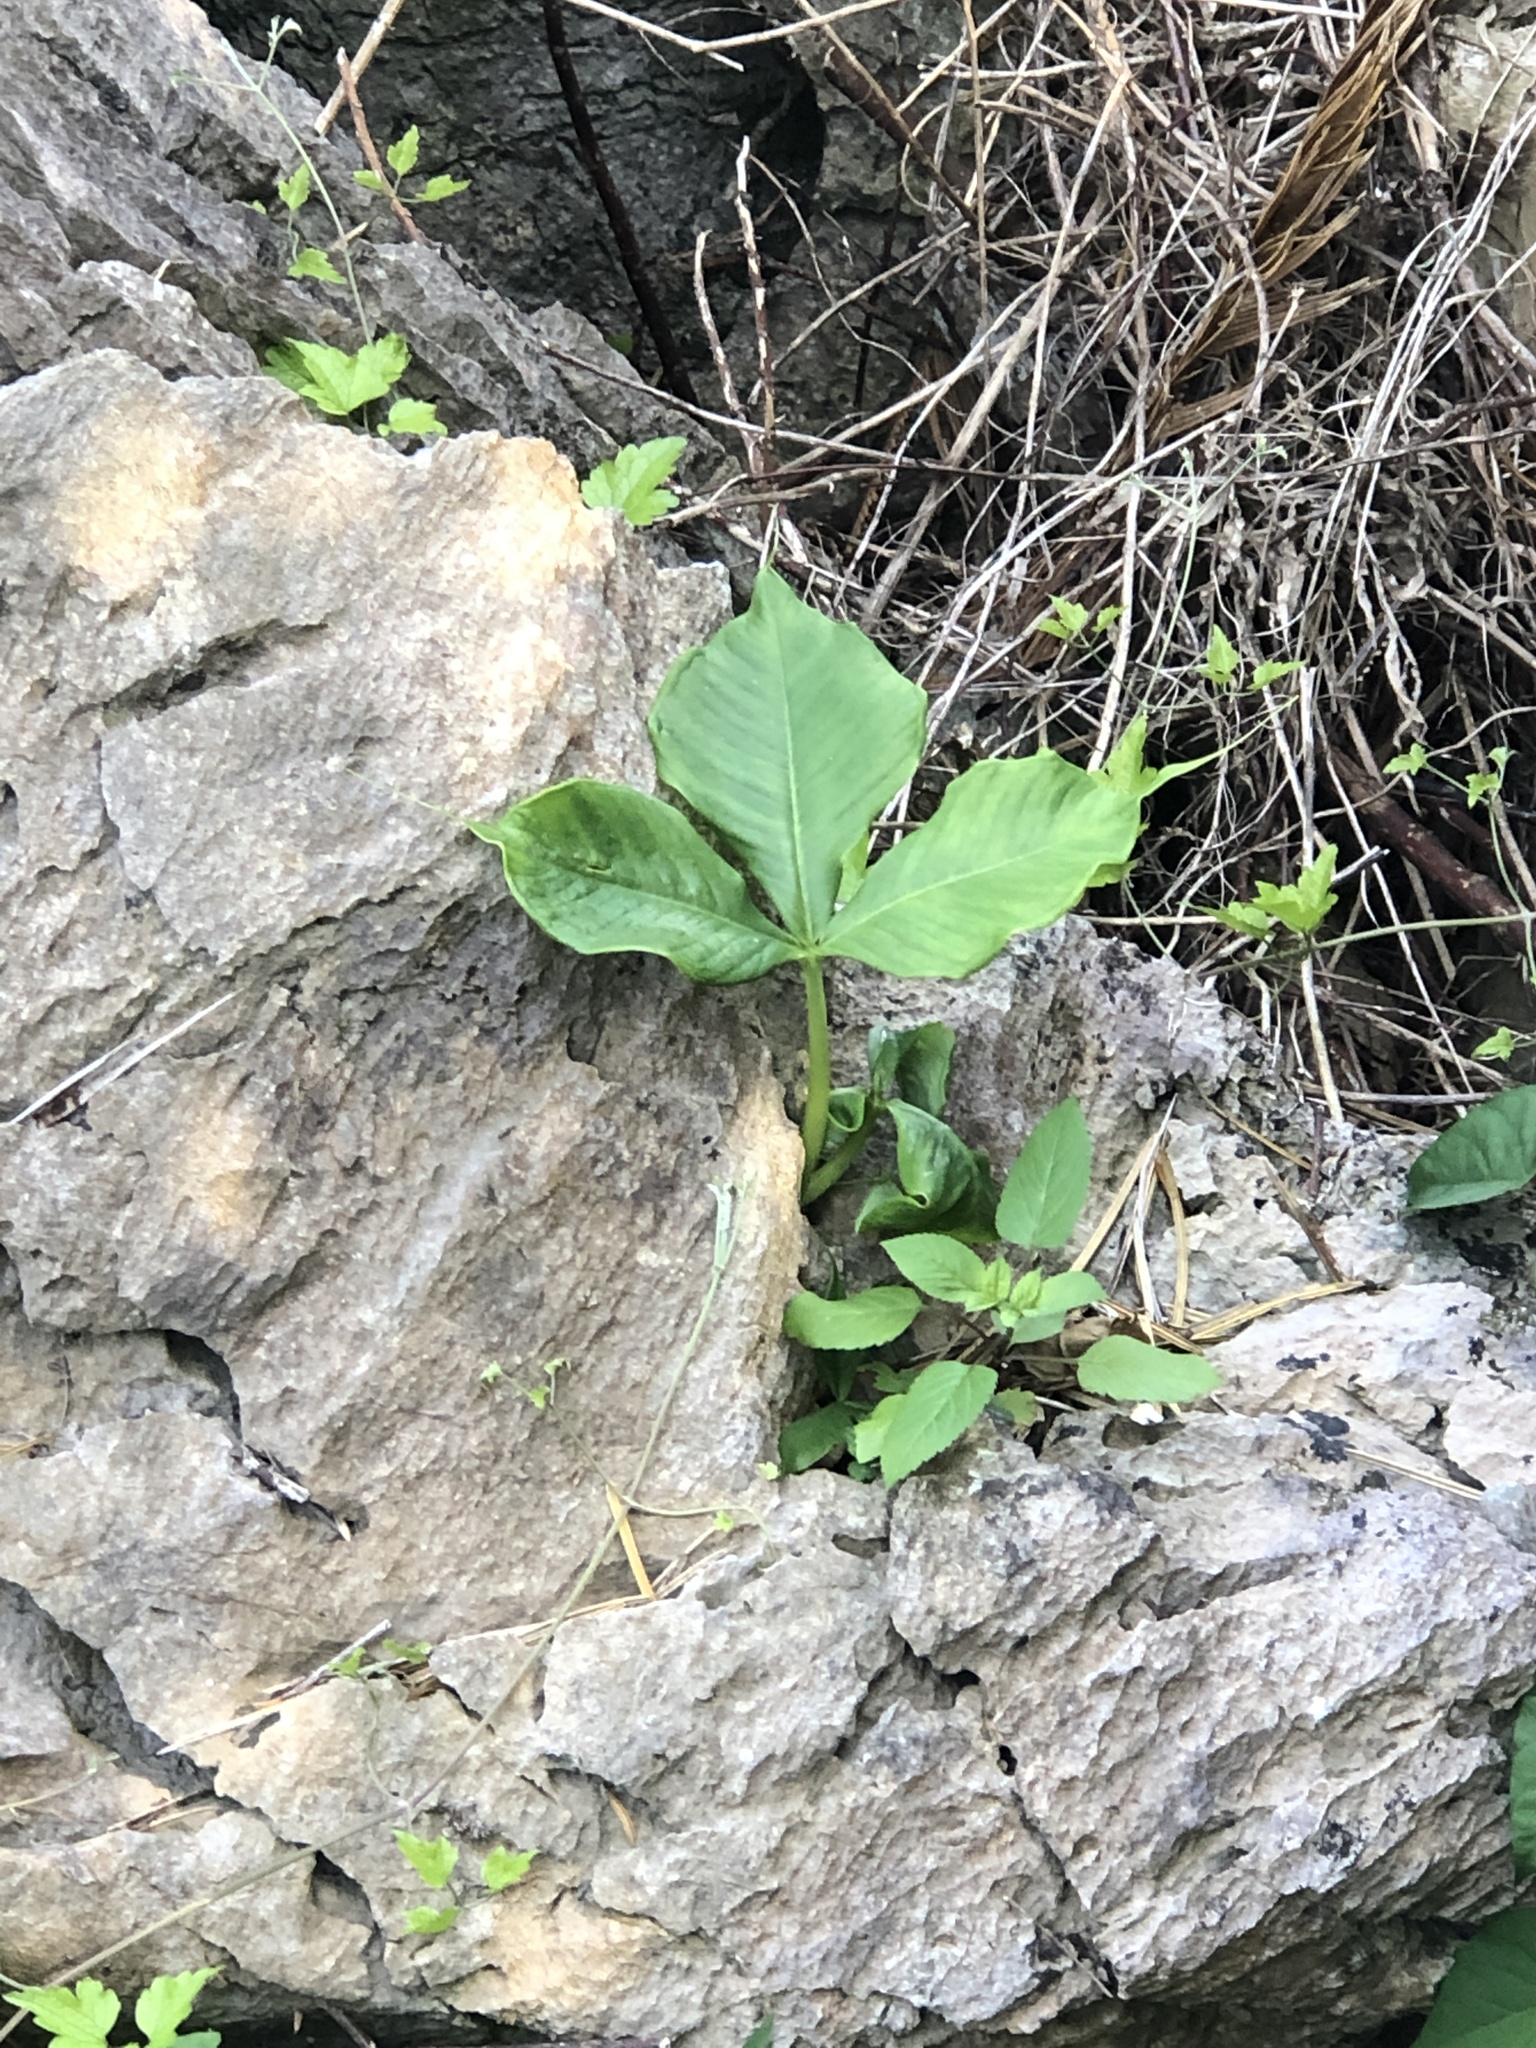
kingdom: Plantae
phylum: Tracheophyta
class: Liliopsida
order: Alismatales
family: Araceae
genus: Arisaema
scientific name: Arisaema ringens
